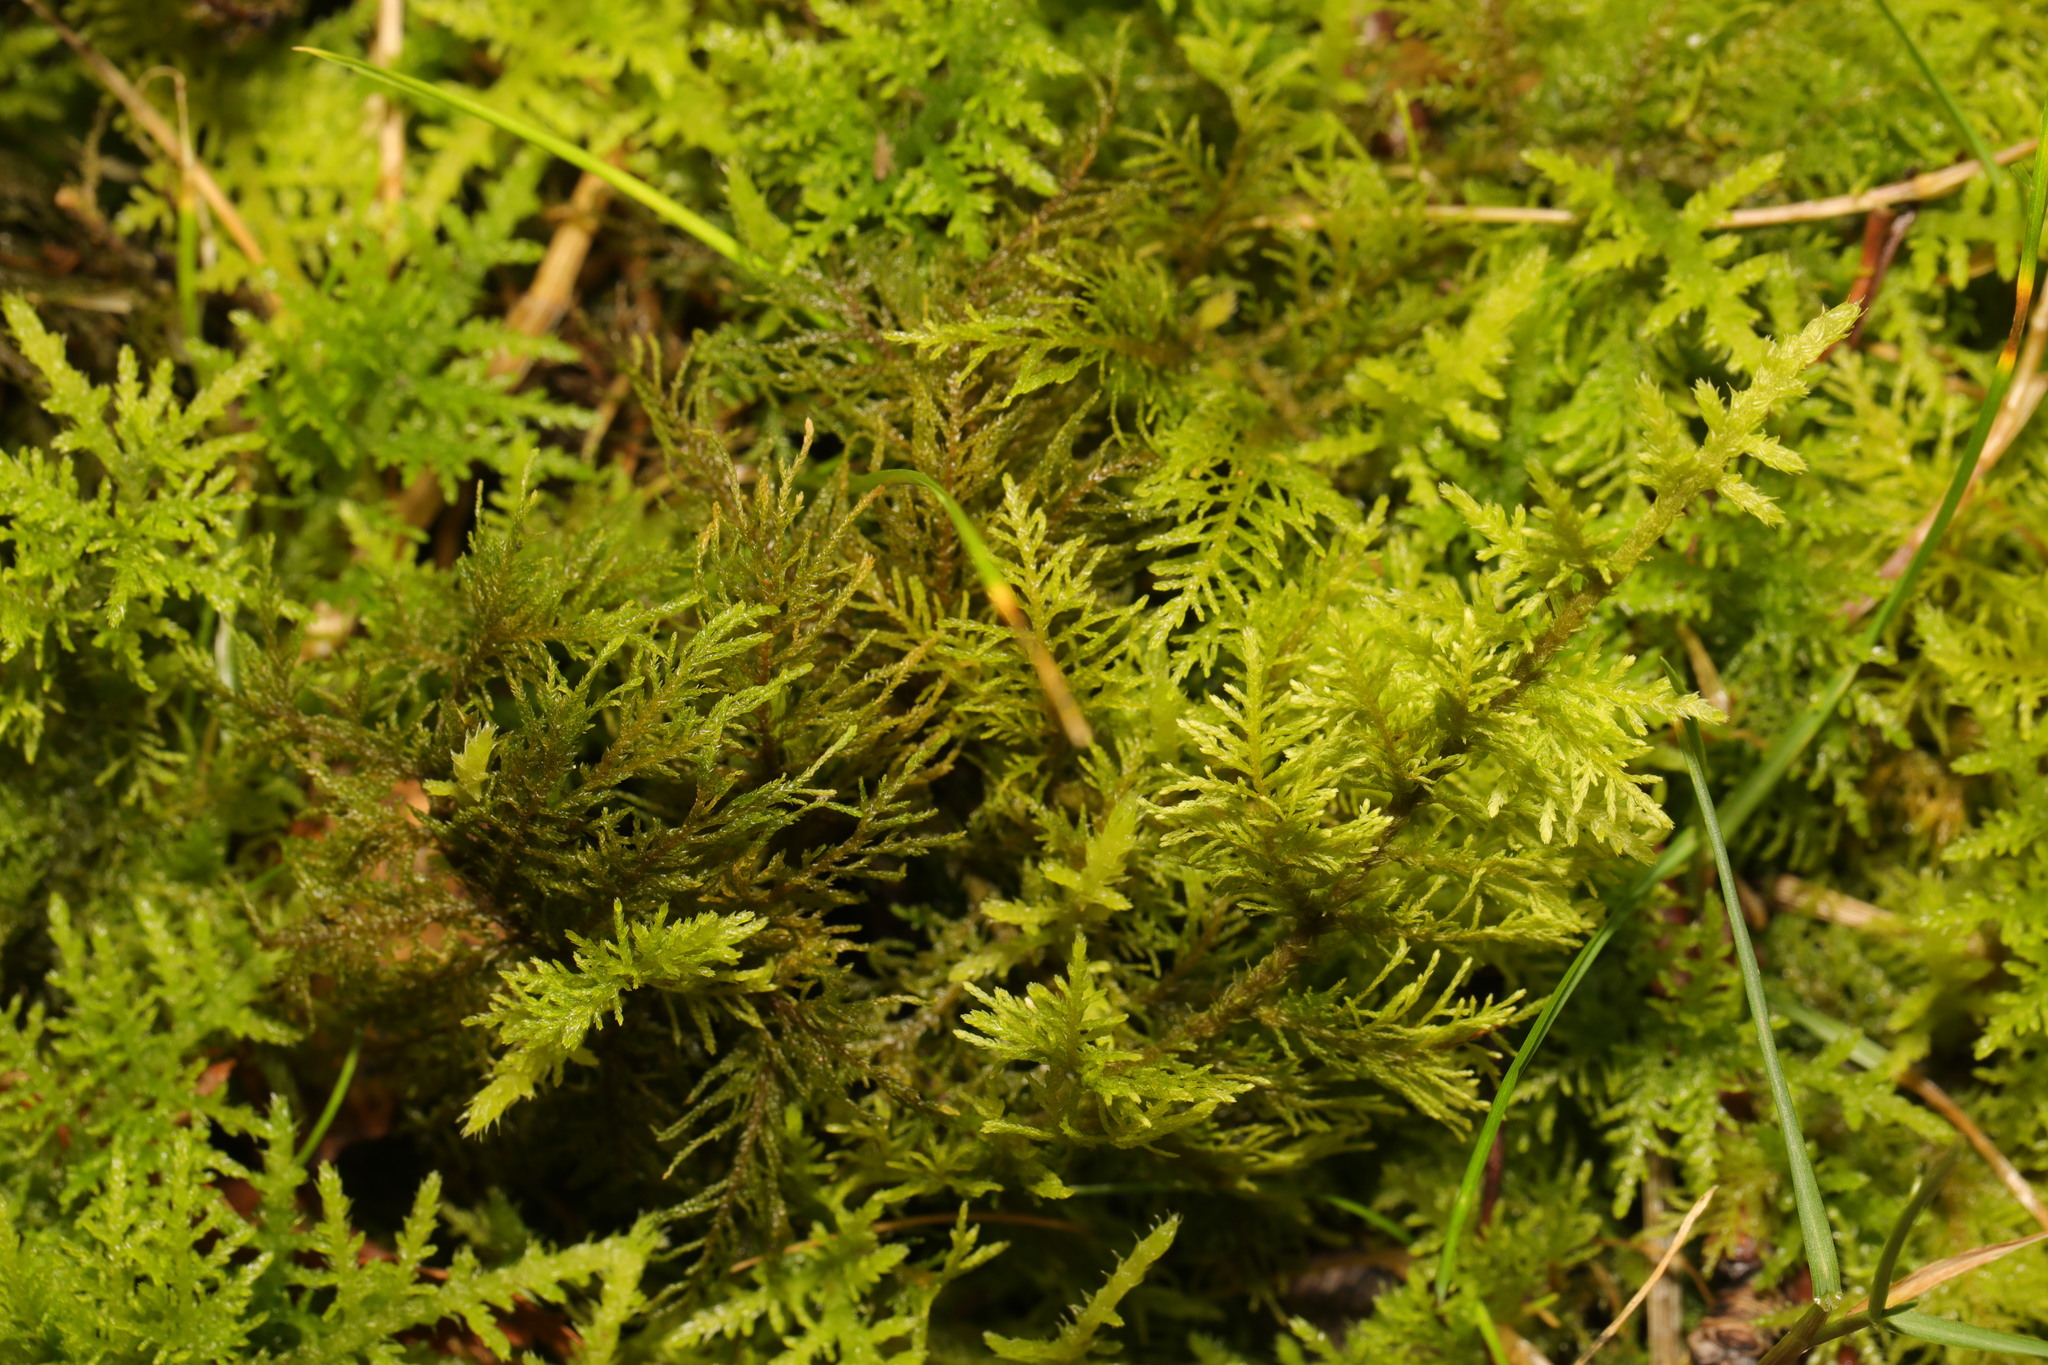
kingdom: Plantae
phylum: Bryophyta
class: Bryopsida
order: Hypnales
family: Thuidiaceae
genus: Thuidium
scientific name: Thuidium tamariscinum
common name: Common tamarisk-moss
